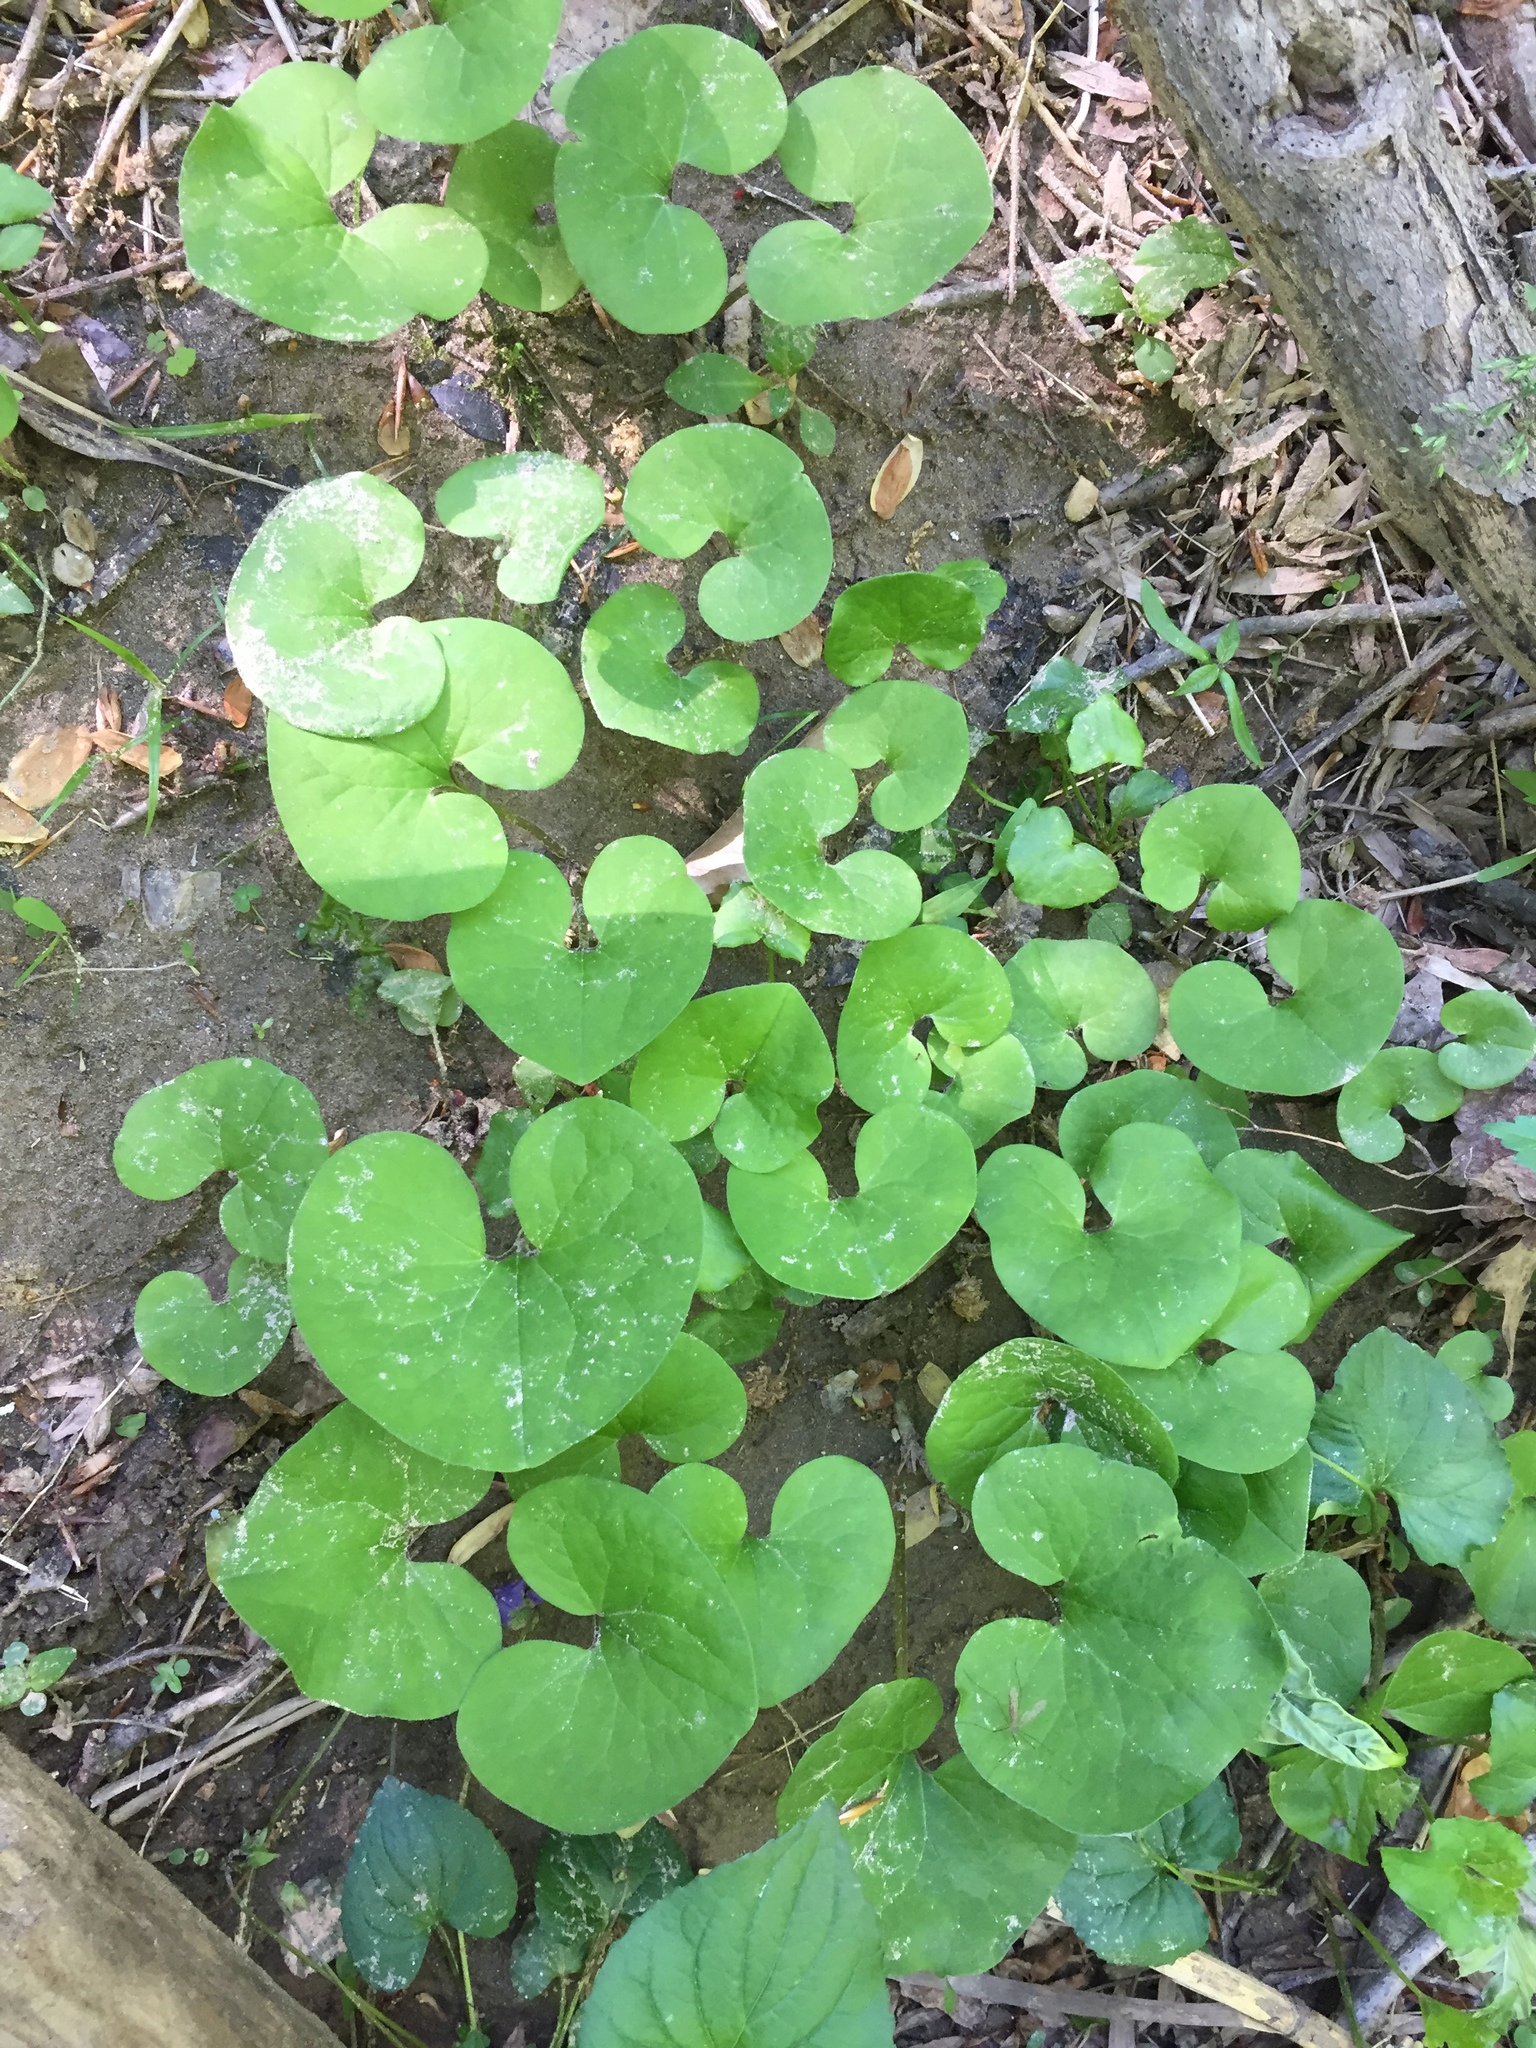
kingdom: Plantae
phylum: Tracheophyta
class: Magnoliopsida
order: Piperales
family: Aristolochiaceae
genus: Asarum
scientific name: Asarum canadense
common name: Wild ginger
